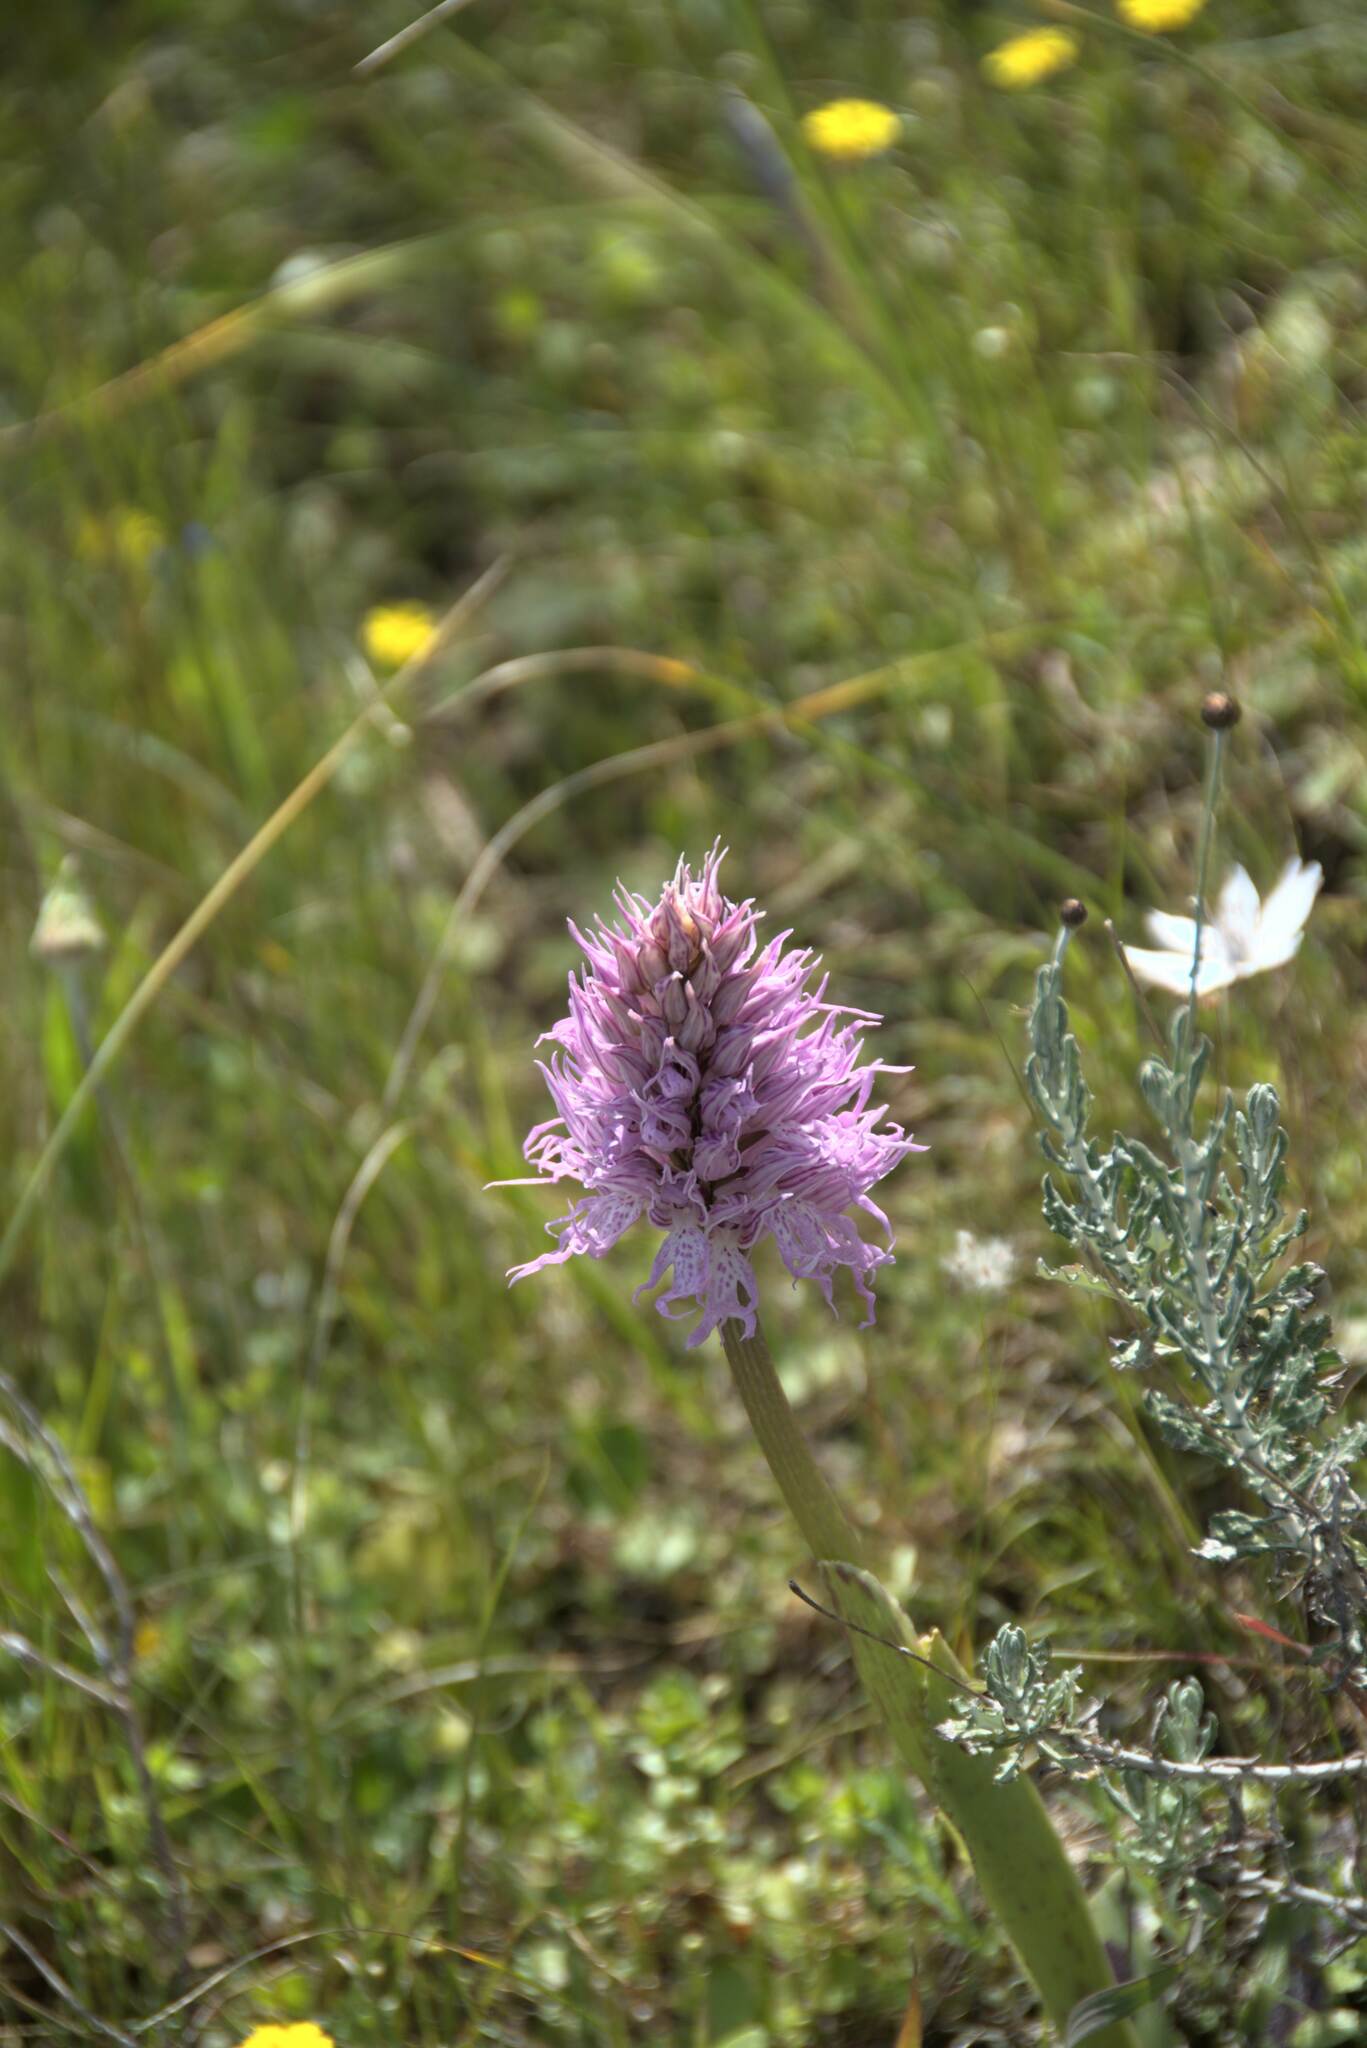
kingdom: Plantae
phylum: Tracheophyta
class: Liliopsida
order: Asparagales
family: Orchidaceae
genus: Orchis
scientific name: Orchis italica
